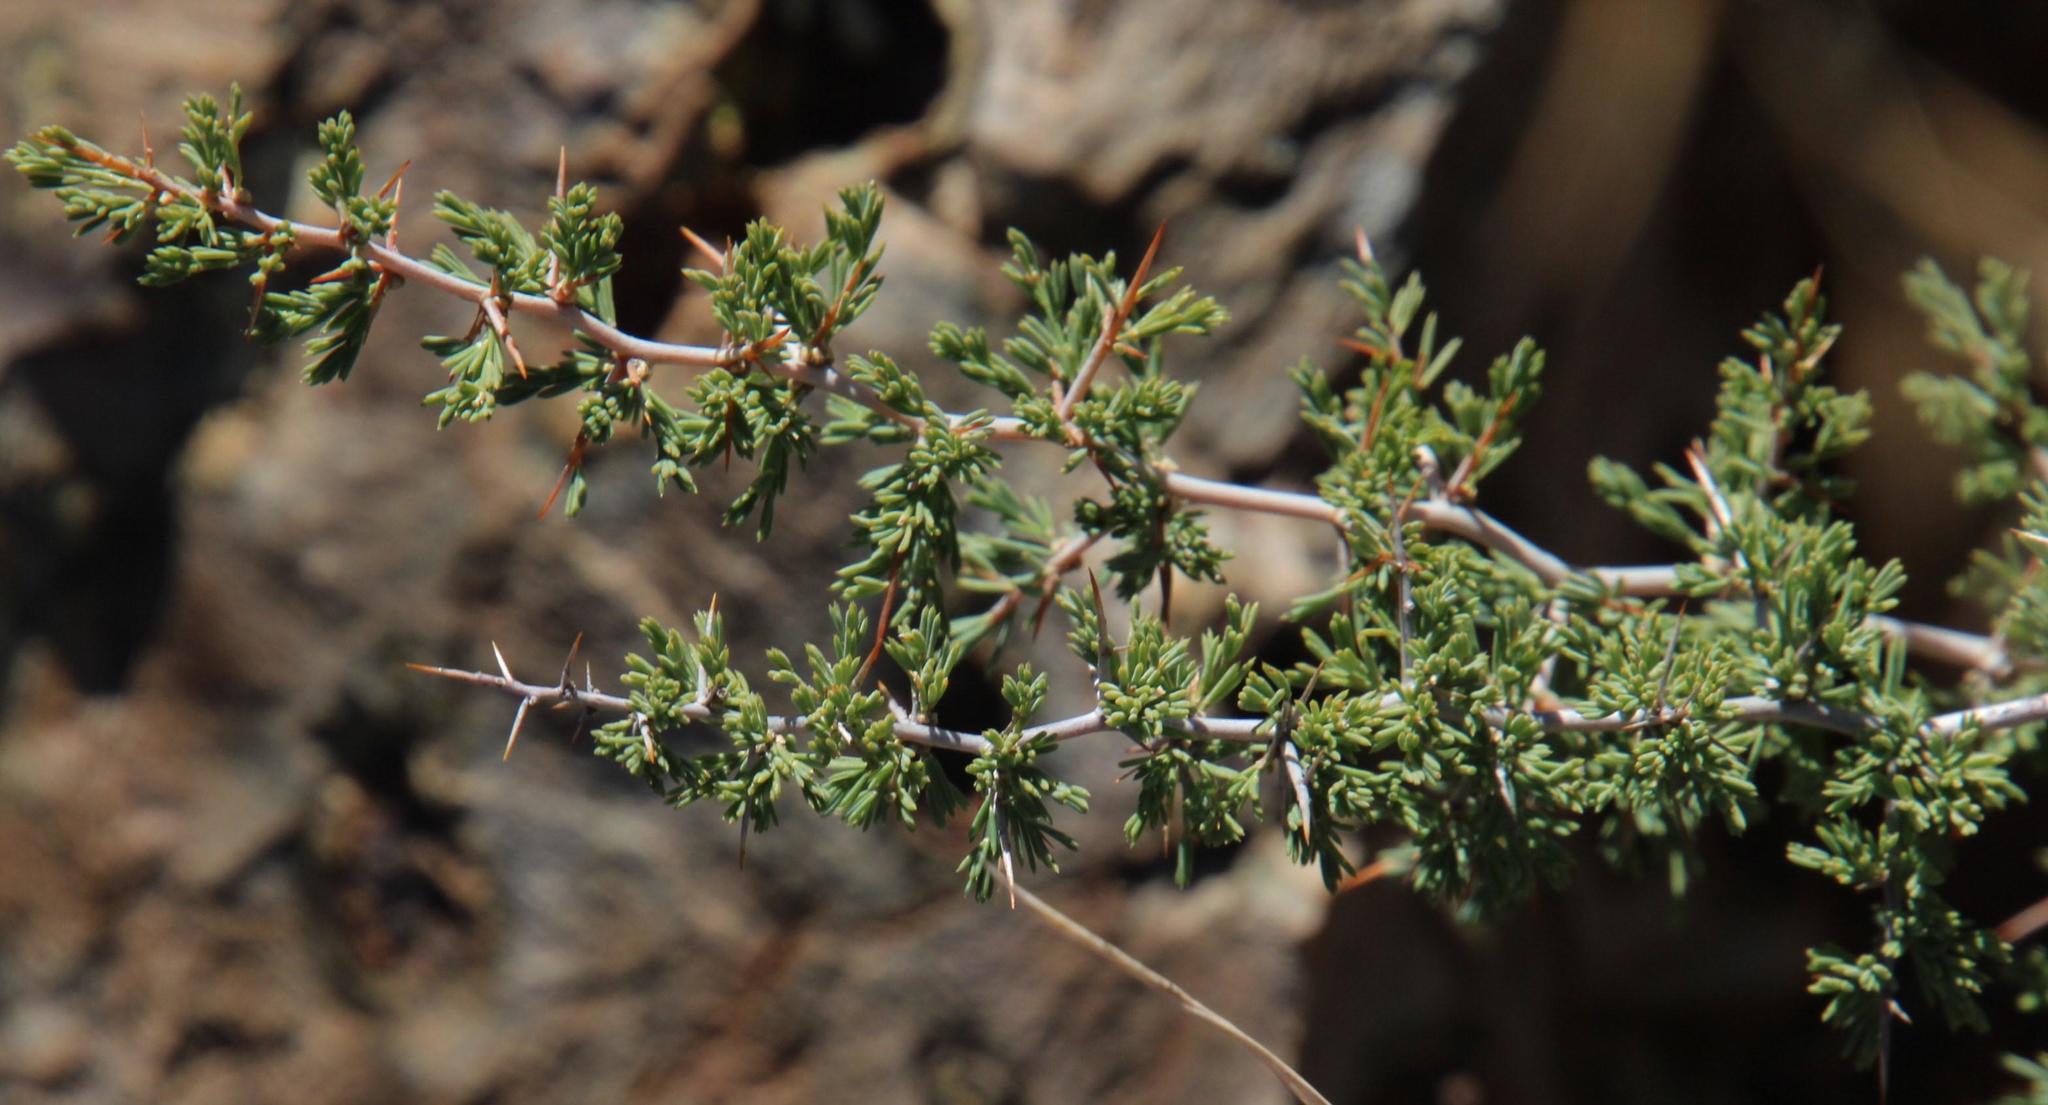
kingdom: Plantae
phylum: Tracheophyta
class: Liliopsida
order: Asparagales
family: Asparagaceae
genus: Asparagus
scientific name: Asparagus suaveolens
